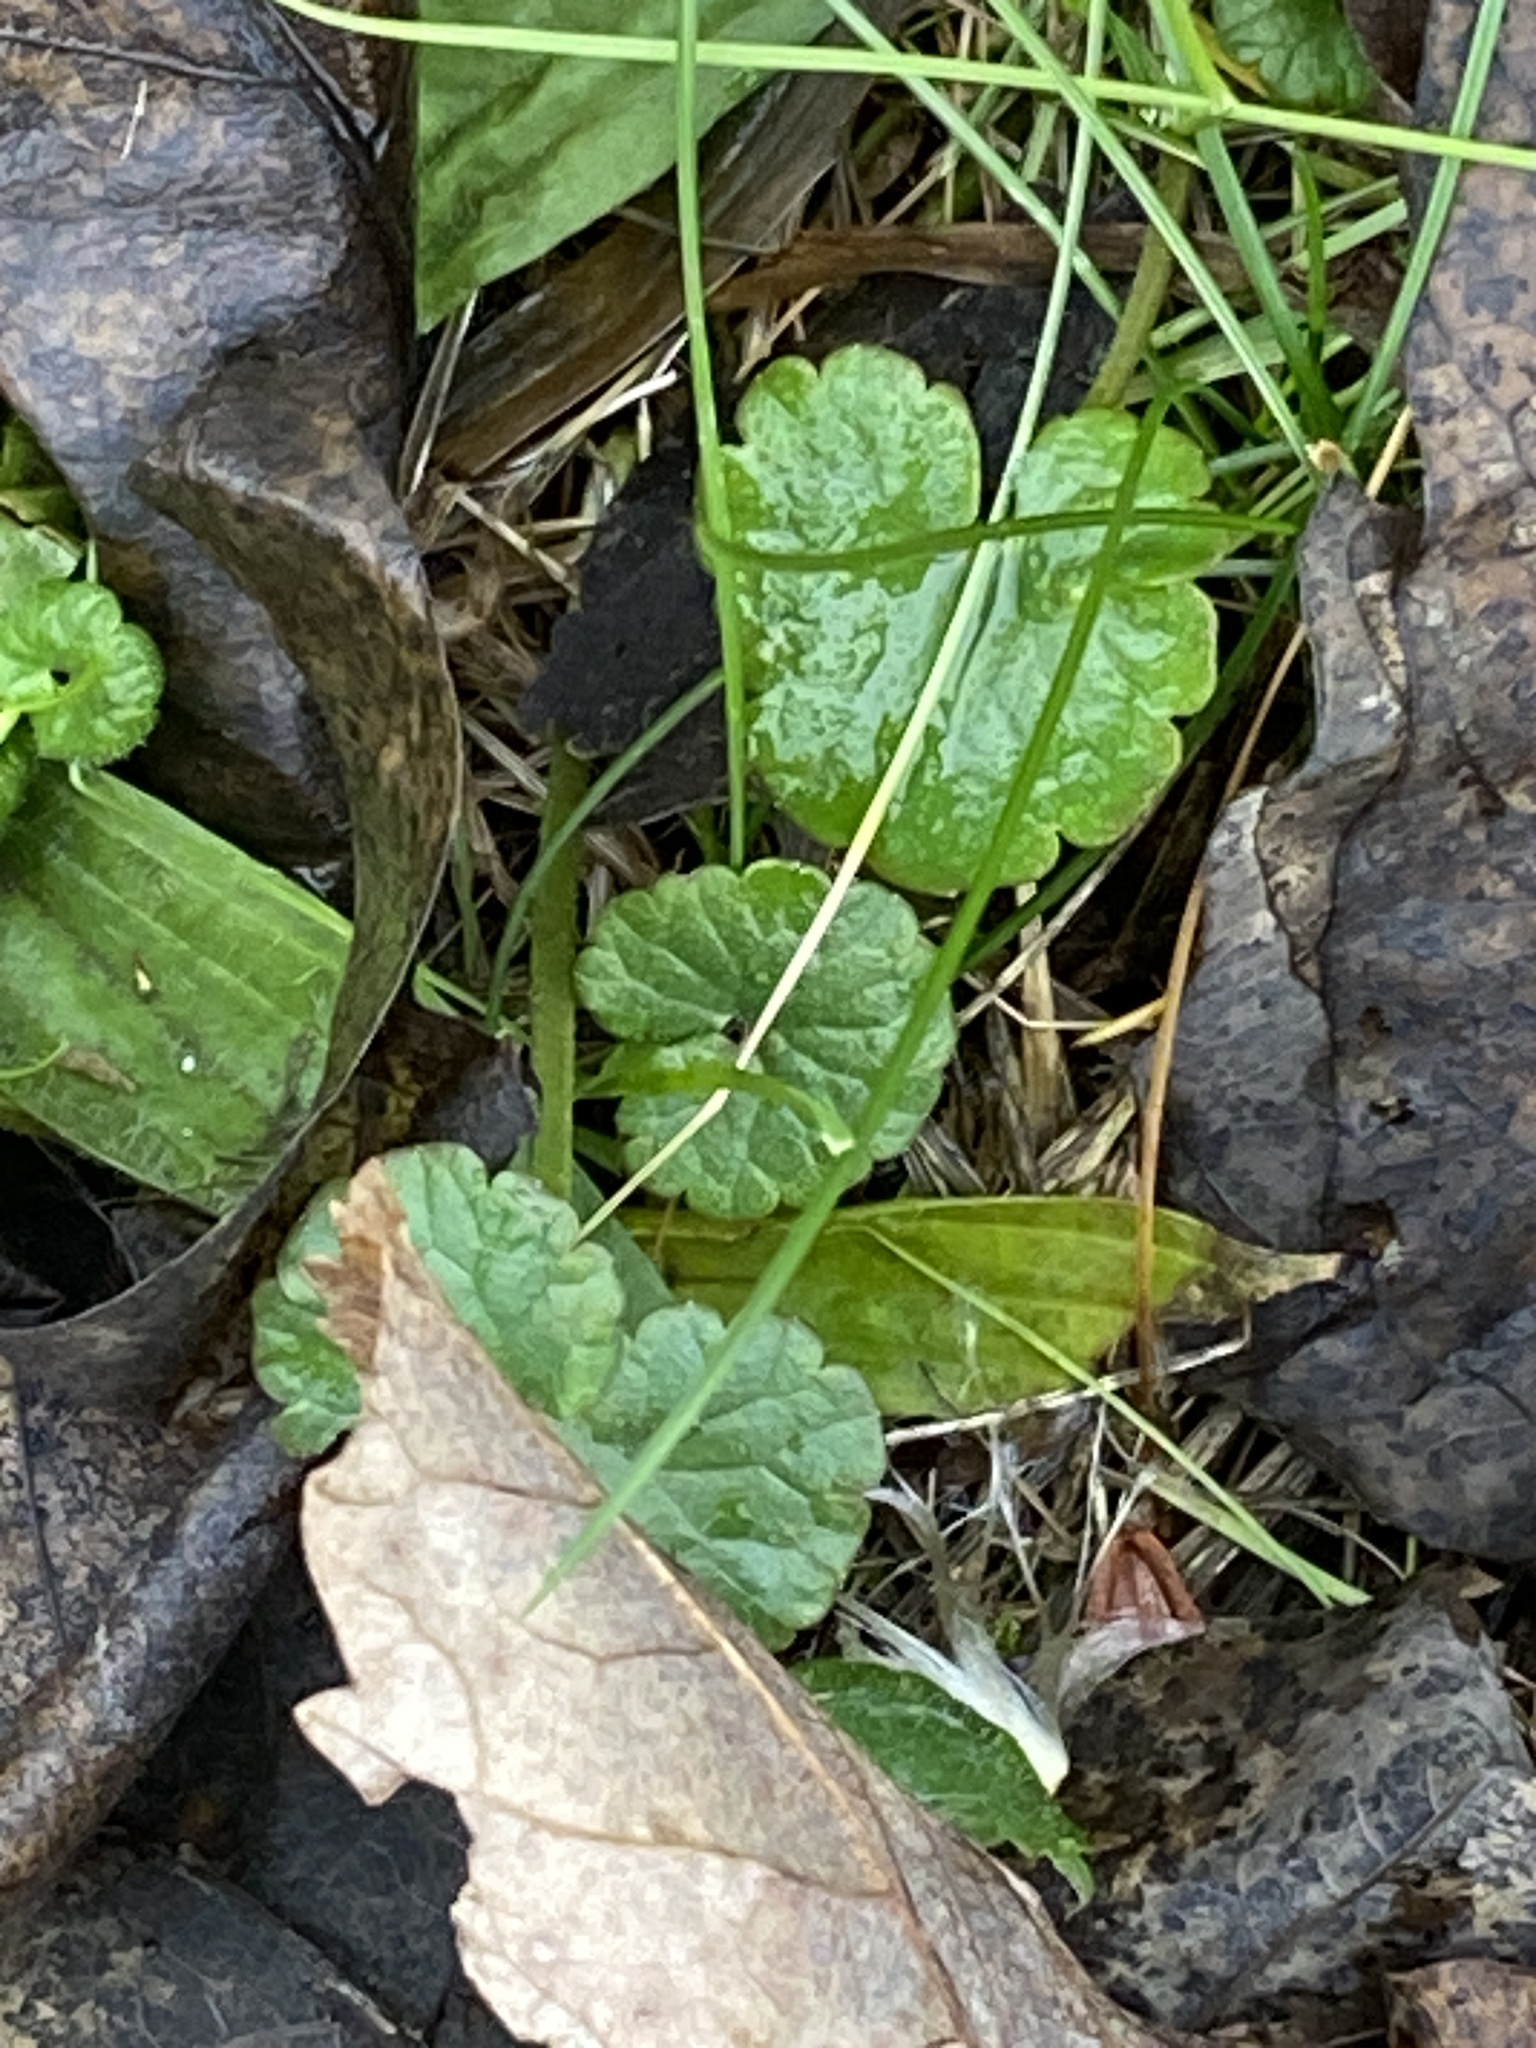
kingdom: Plantae
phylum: Tracheophyta
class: Magnoliopsida
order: Lamiales
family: Lamiaceae
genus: Glechoma
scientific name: Glechoma hederacea
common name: Ground ivy
